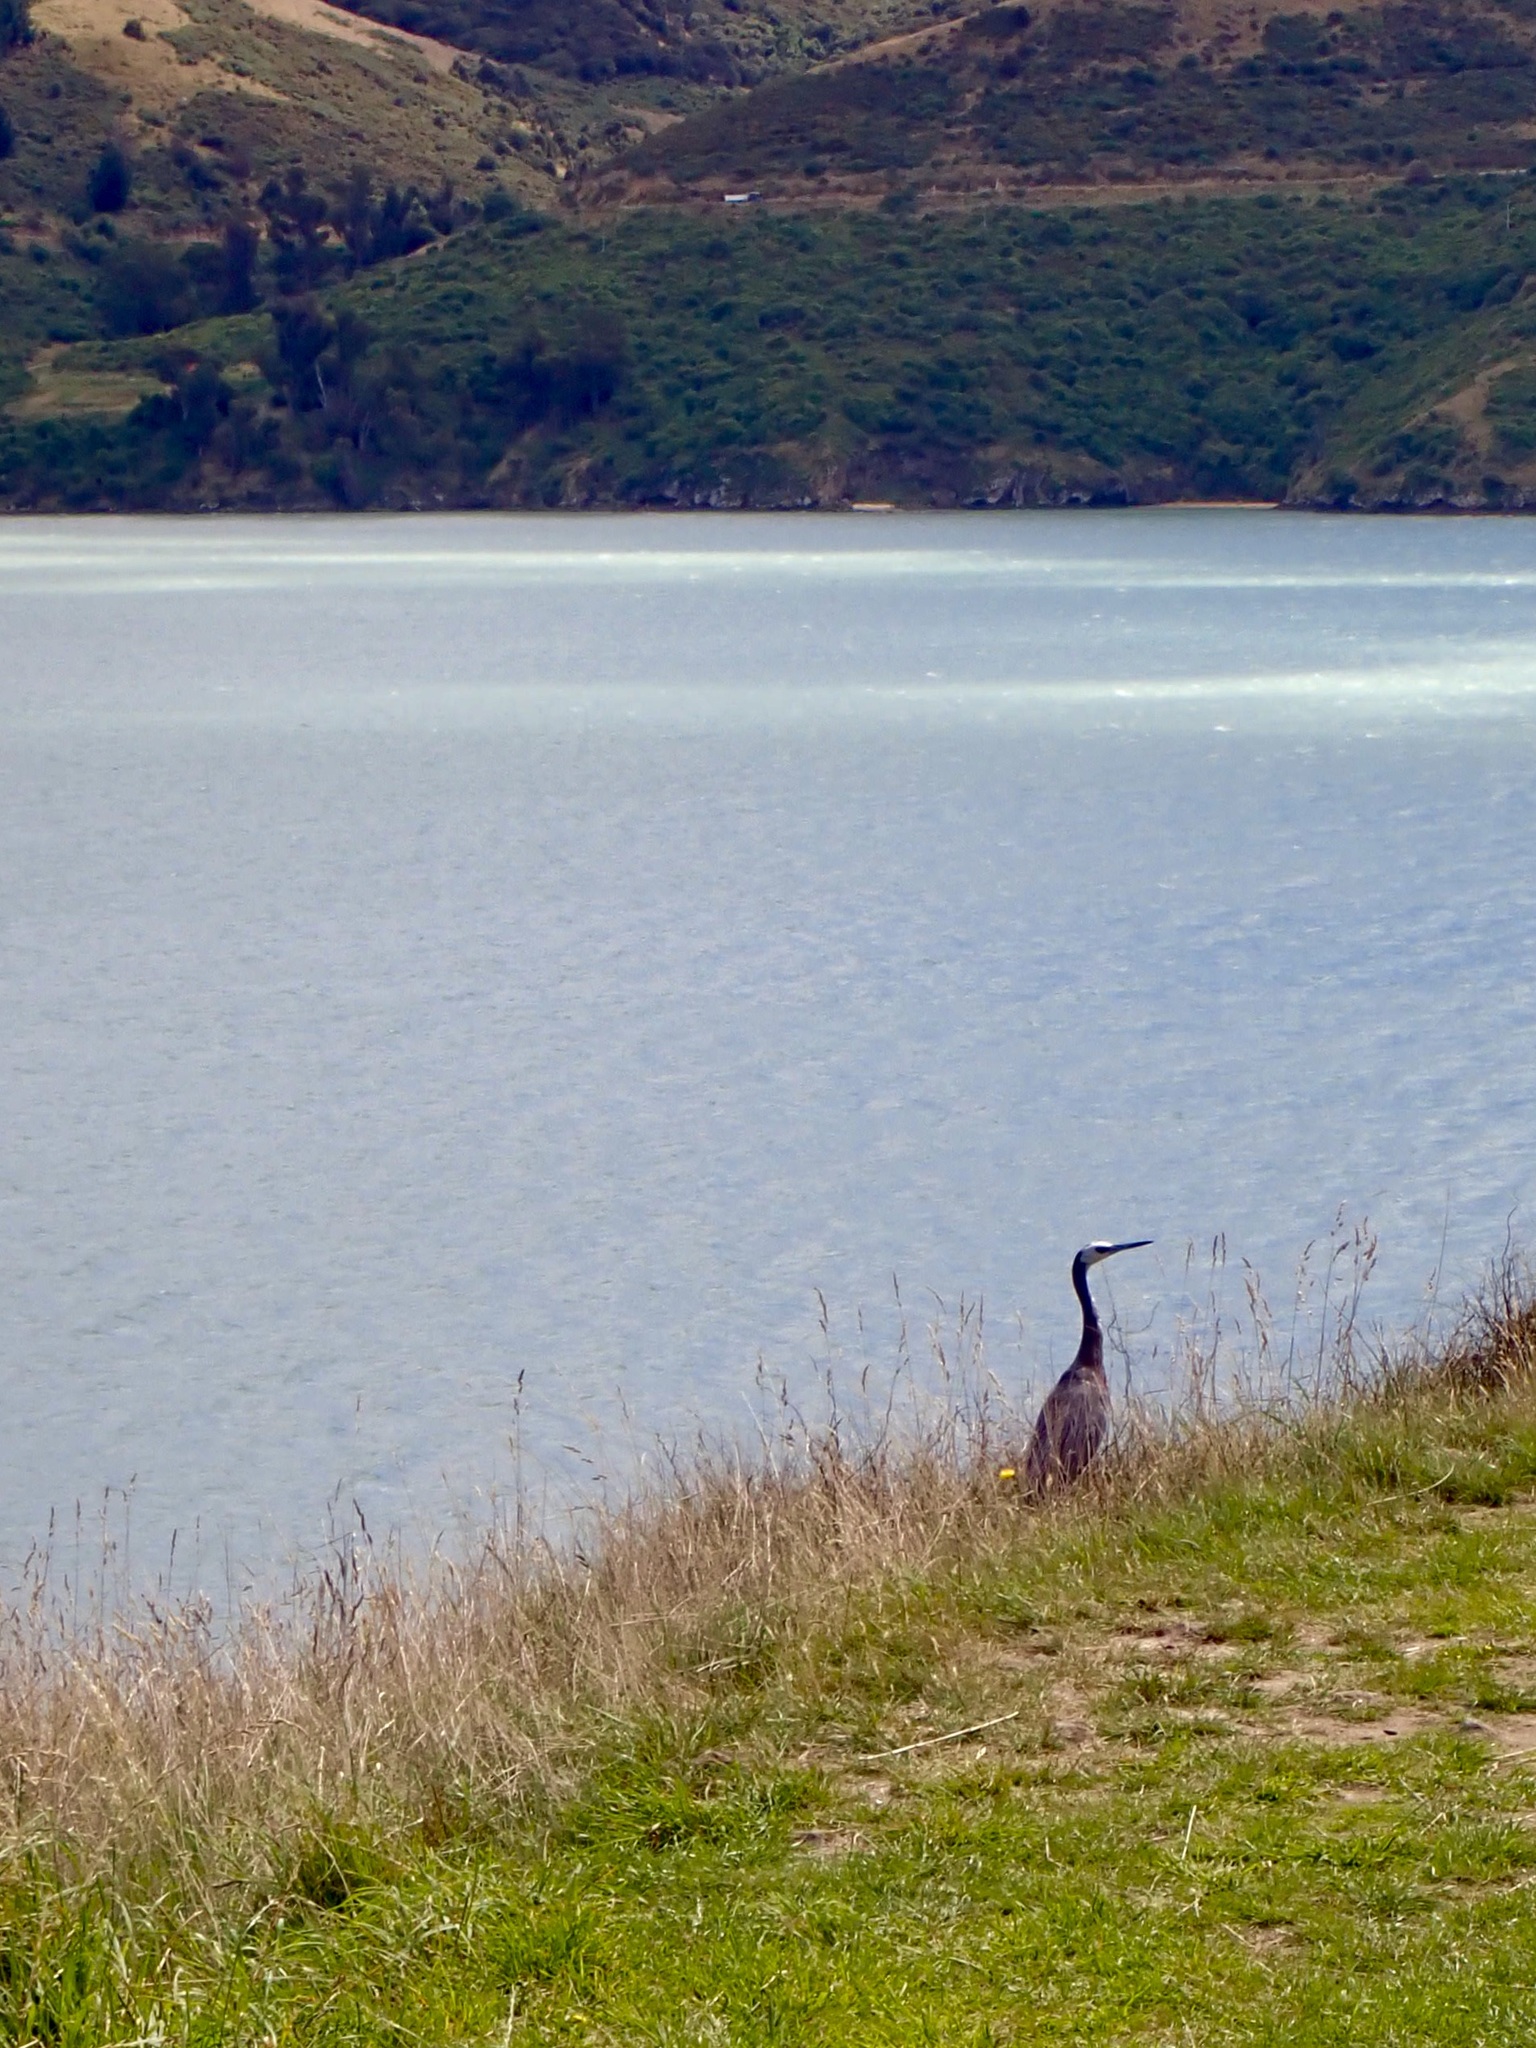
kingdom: Animalia
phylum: Chordata
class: Aves
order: Pelecaniformes
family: Ardeidae
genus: Egretta
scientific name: Egretta novaehollandiae
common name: White-faced heron
